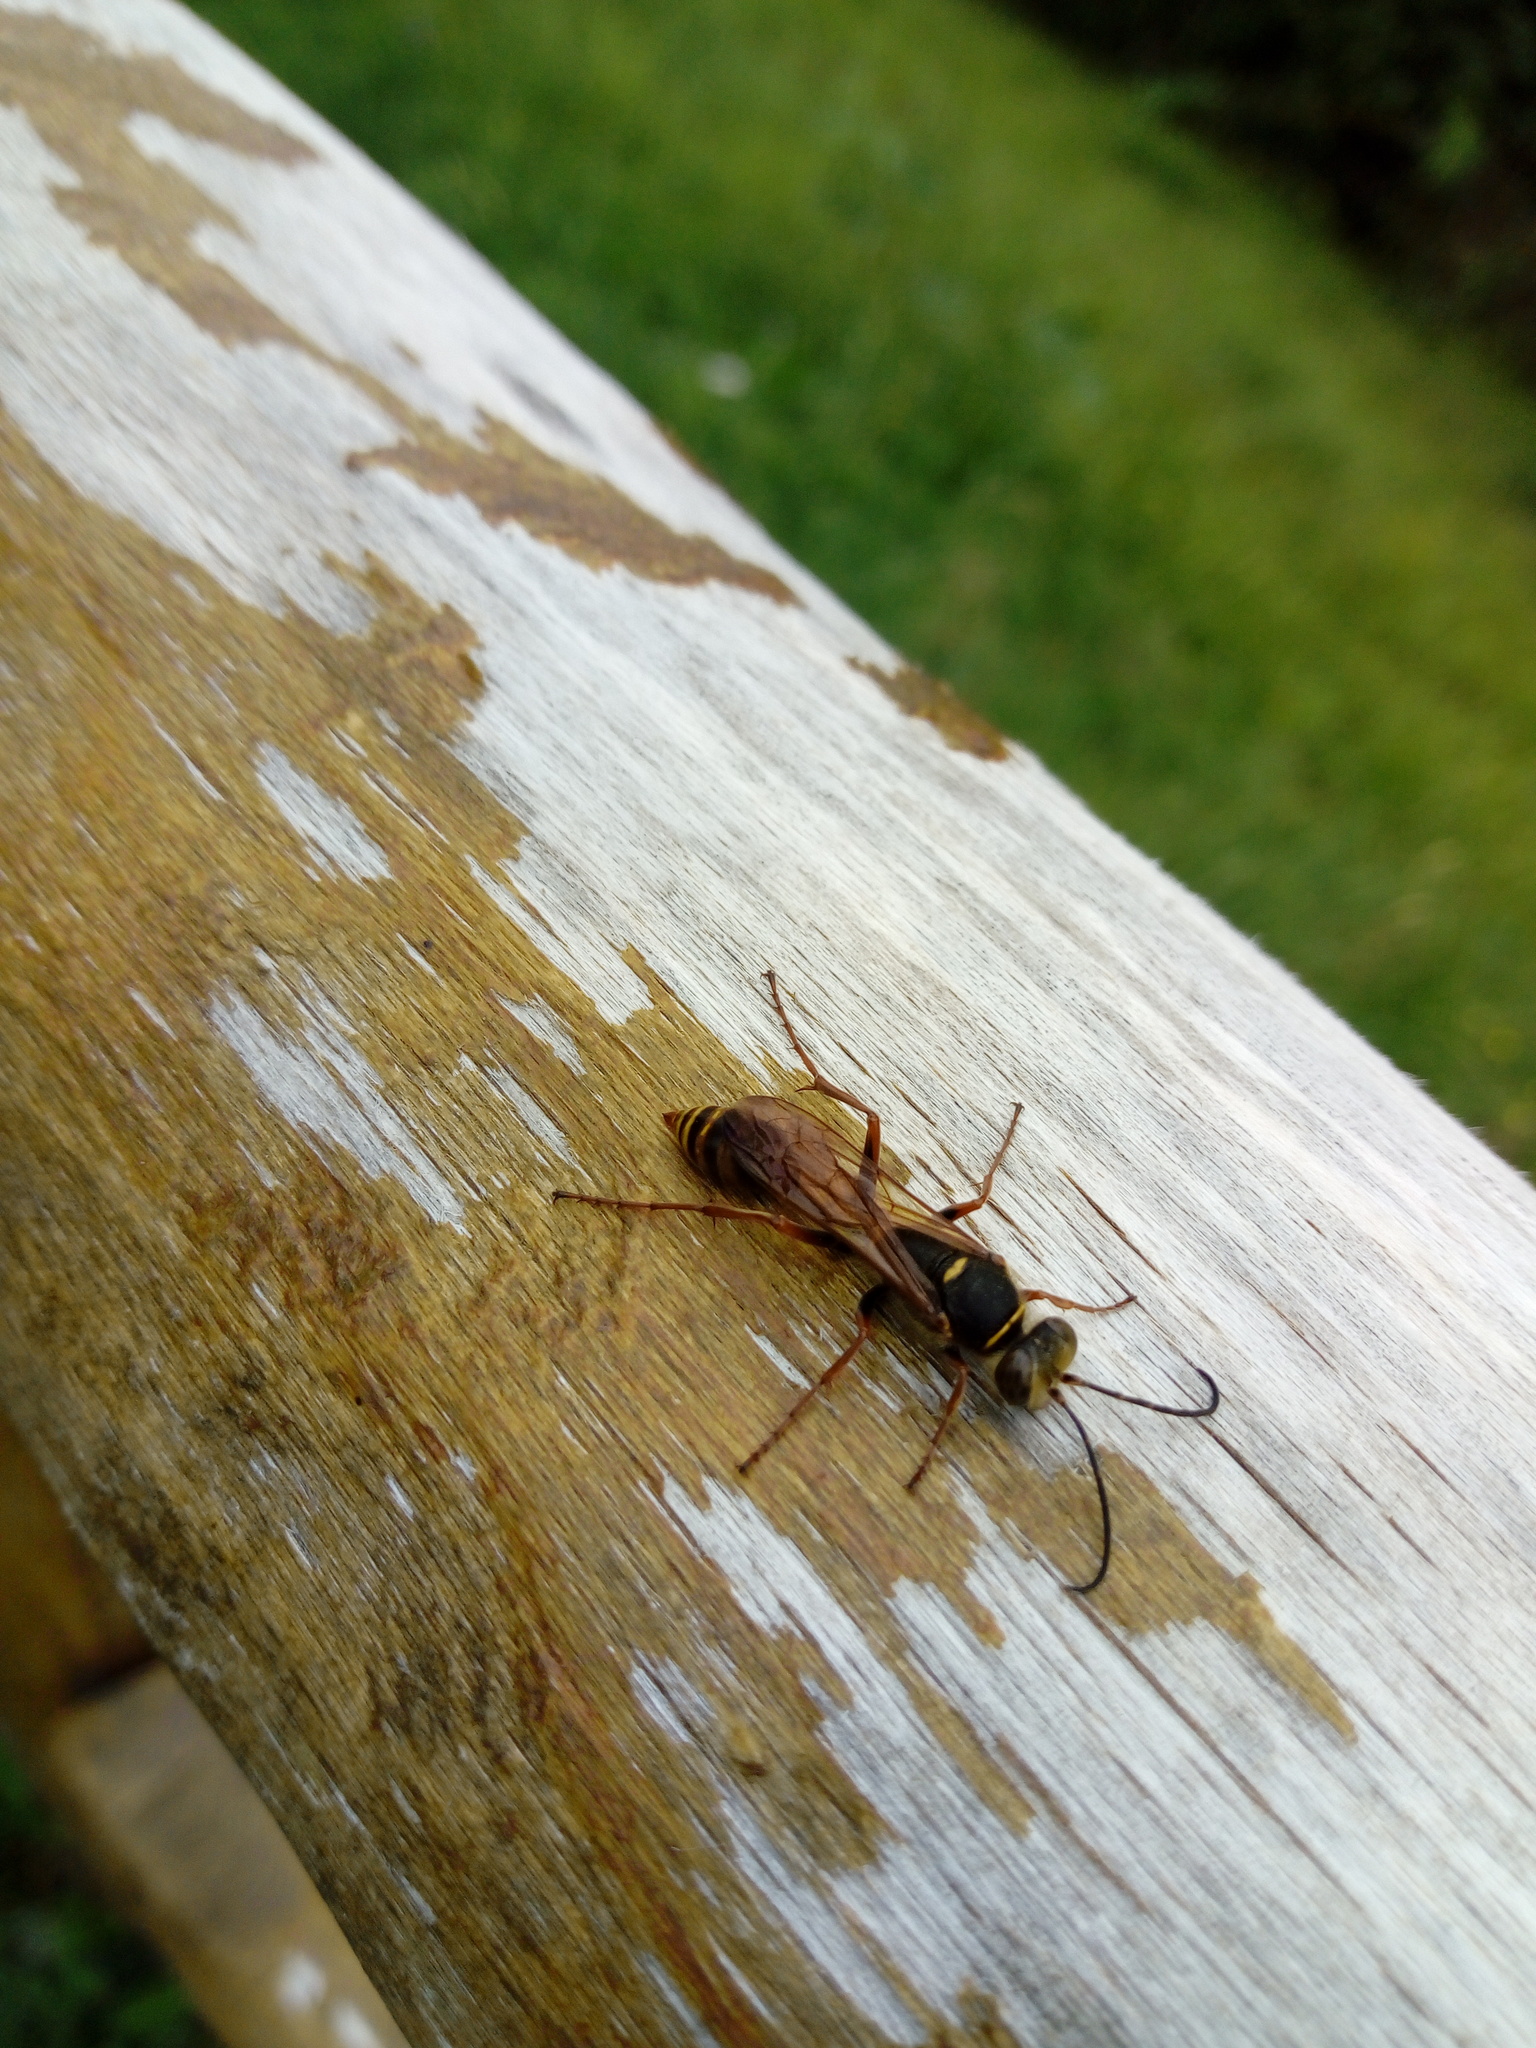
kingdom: Animalia
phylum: Arthropoda
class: Insecta
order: Hymenoptera
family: Sphecidae
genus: Sceliphron
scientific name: Sceliphron curvatum
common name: Pèlopèe
